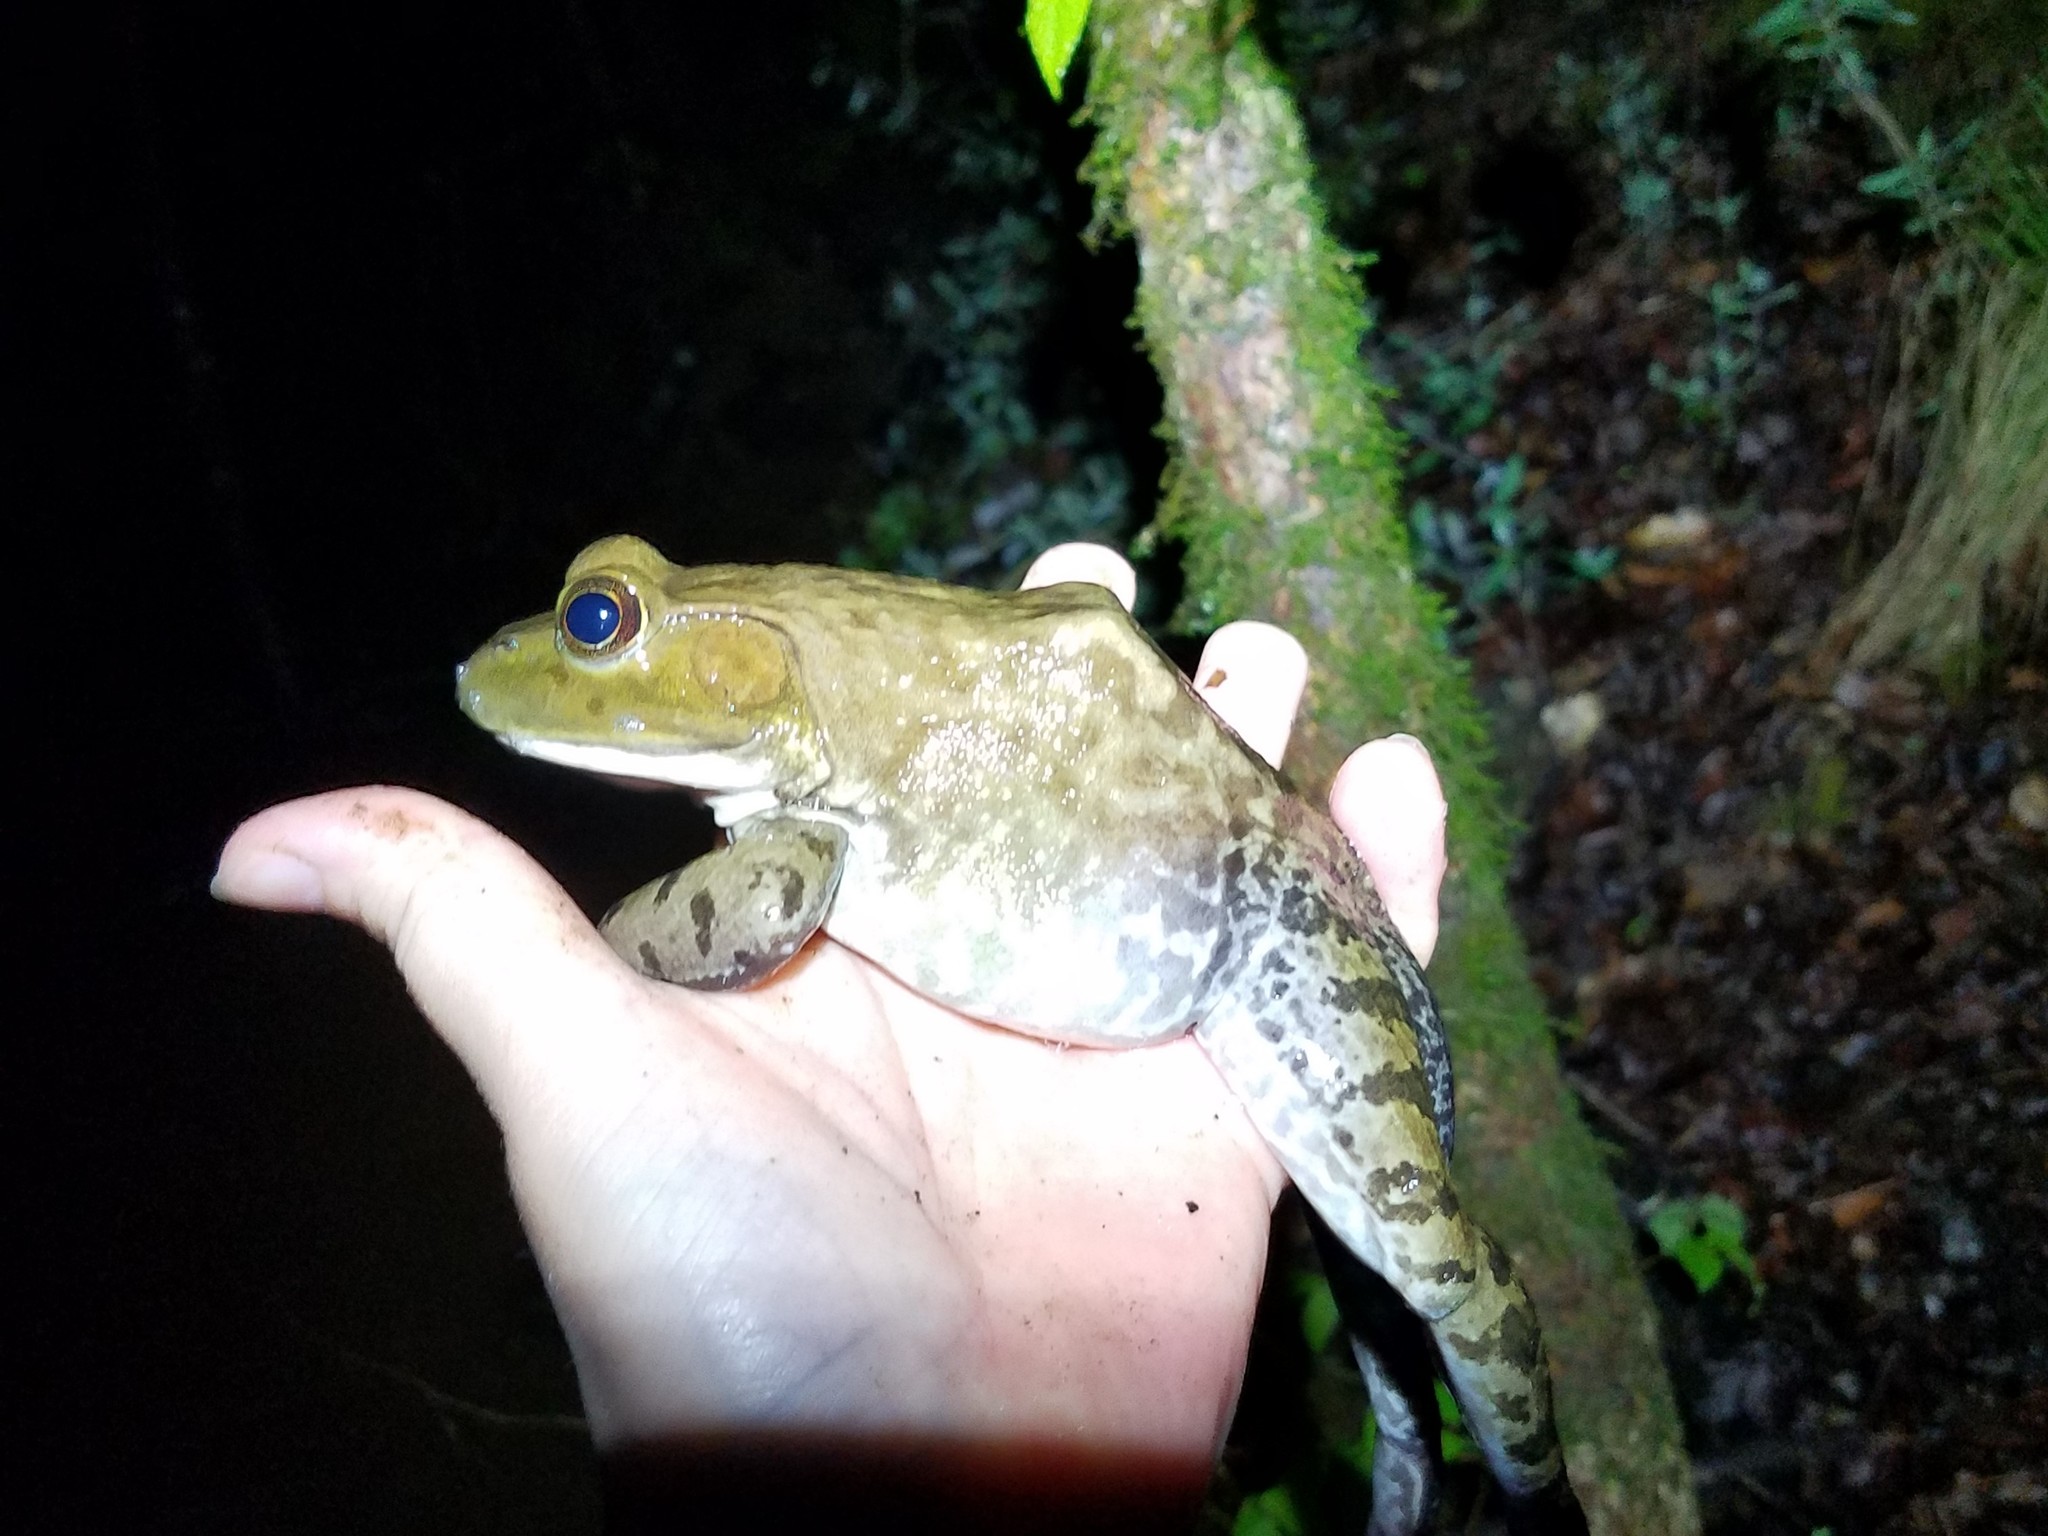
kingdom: Animalia
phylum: Chordata
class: Amphibia
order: Anura
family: Ranidae
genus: Lithobates
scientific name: Lithobates catesbeianus
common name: American bullfrog
